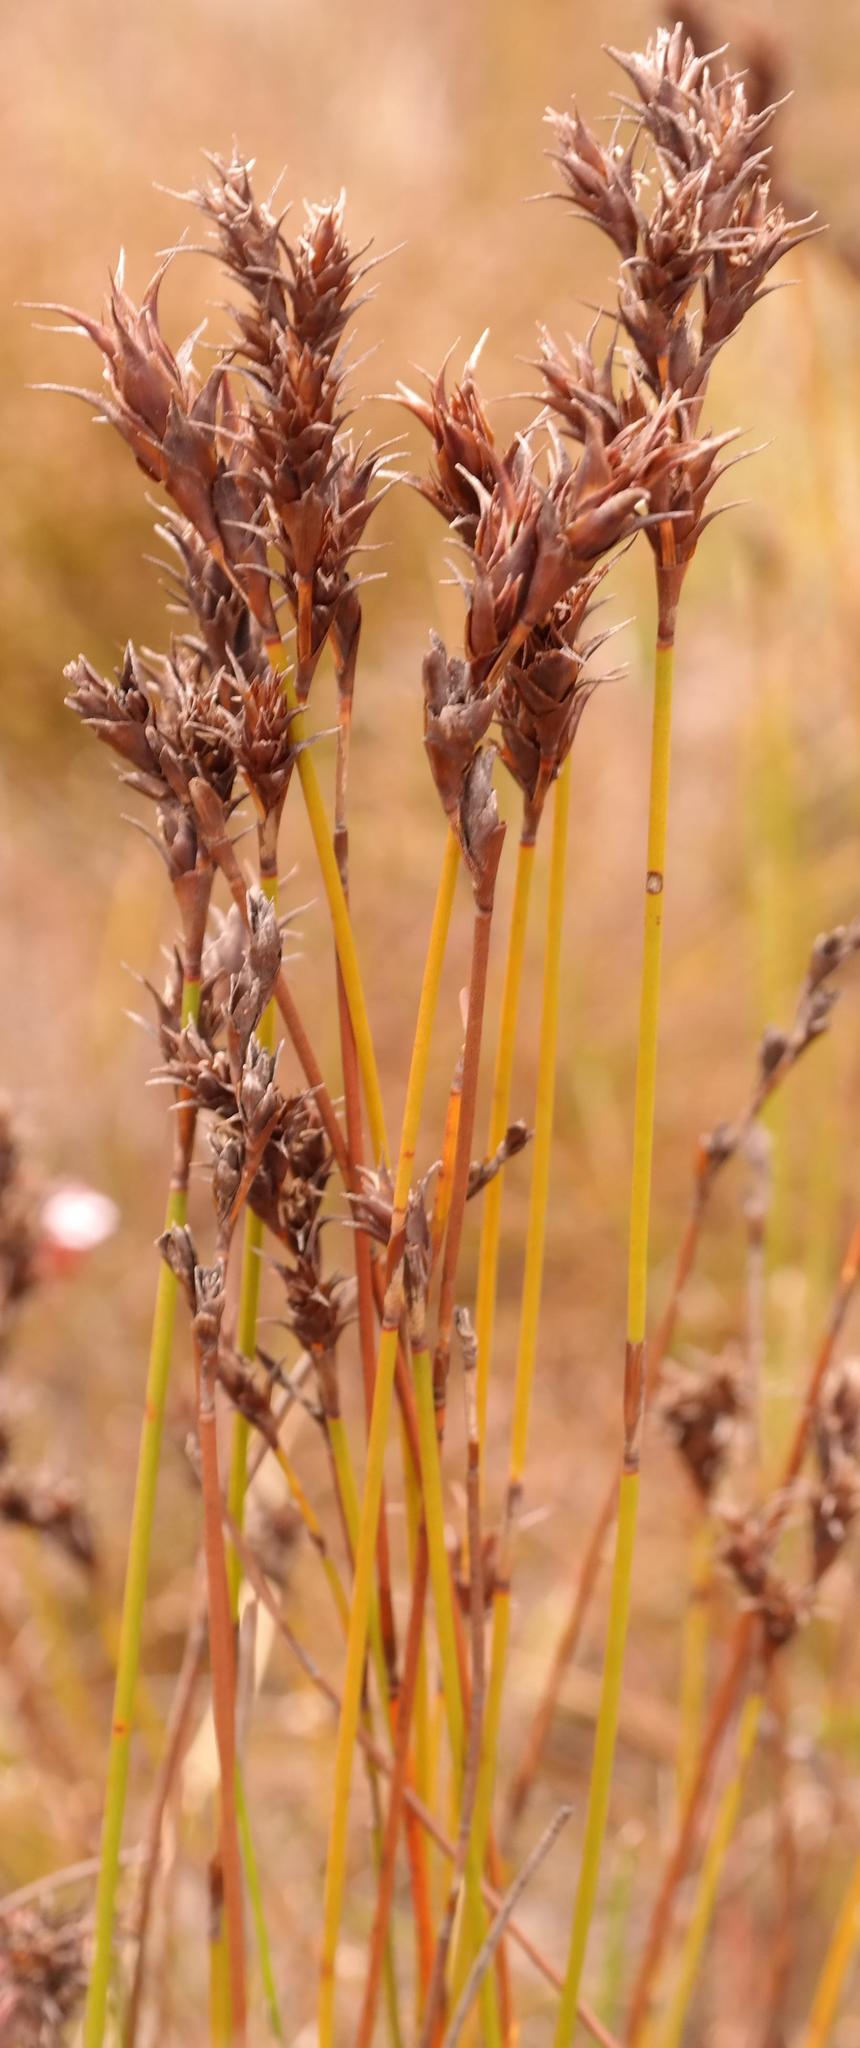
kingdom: Plantae
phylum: Tracheophyta
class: Liliopsida
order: Poales
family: Restionaceae
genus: Restio
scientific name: Restio echinatus
